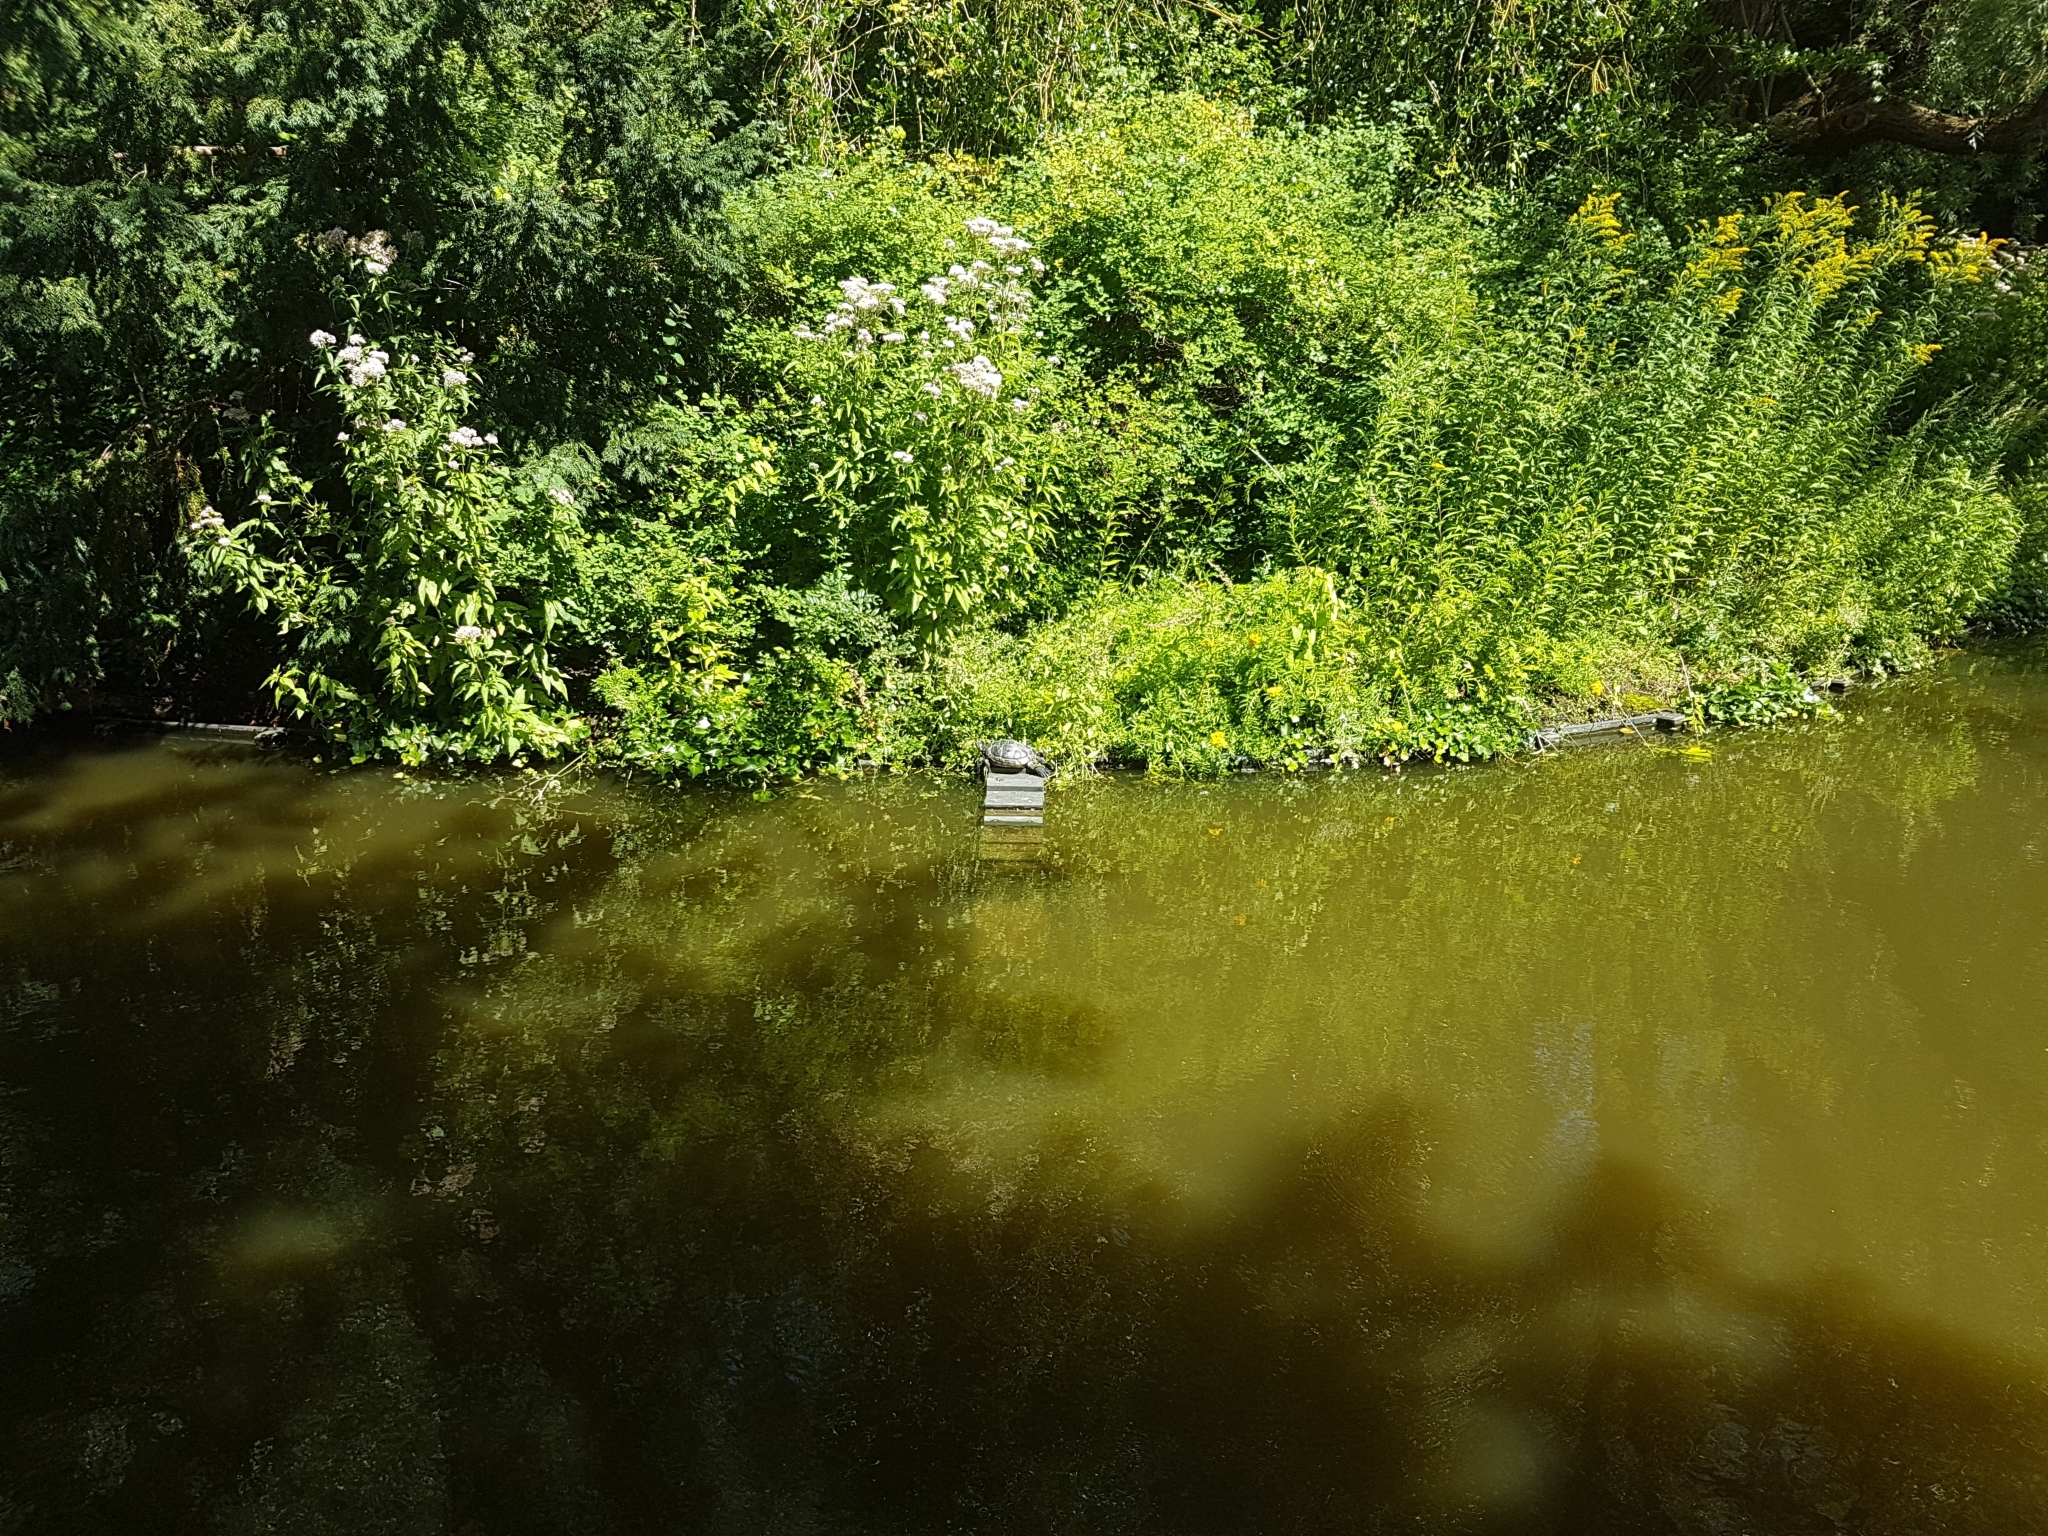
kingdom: Animalia
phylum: Chordata
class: Testudines
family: Emydidae
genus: Trachemys
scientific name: Trachemys scripta
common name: Slider
